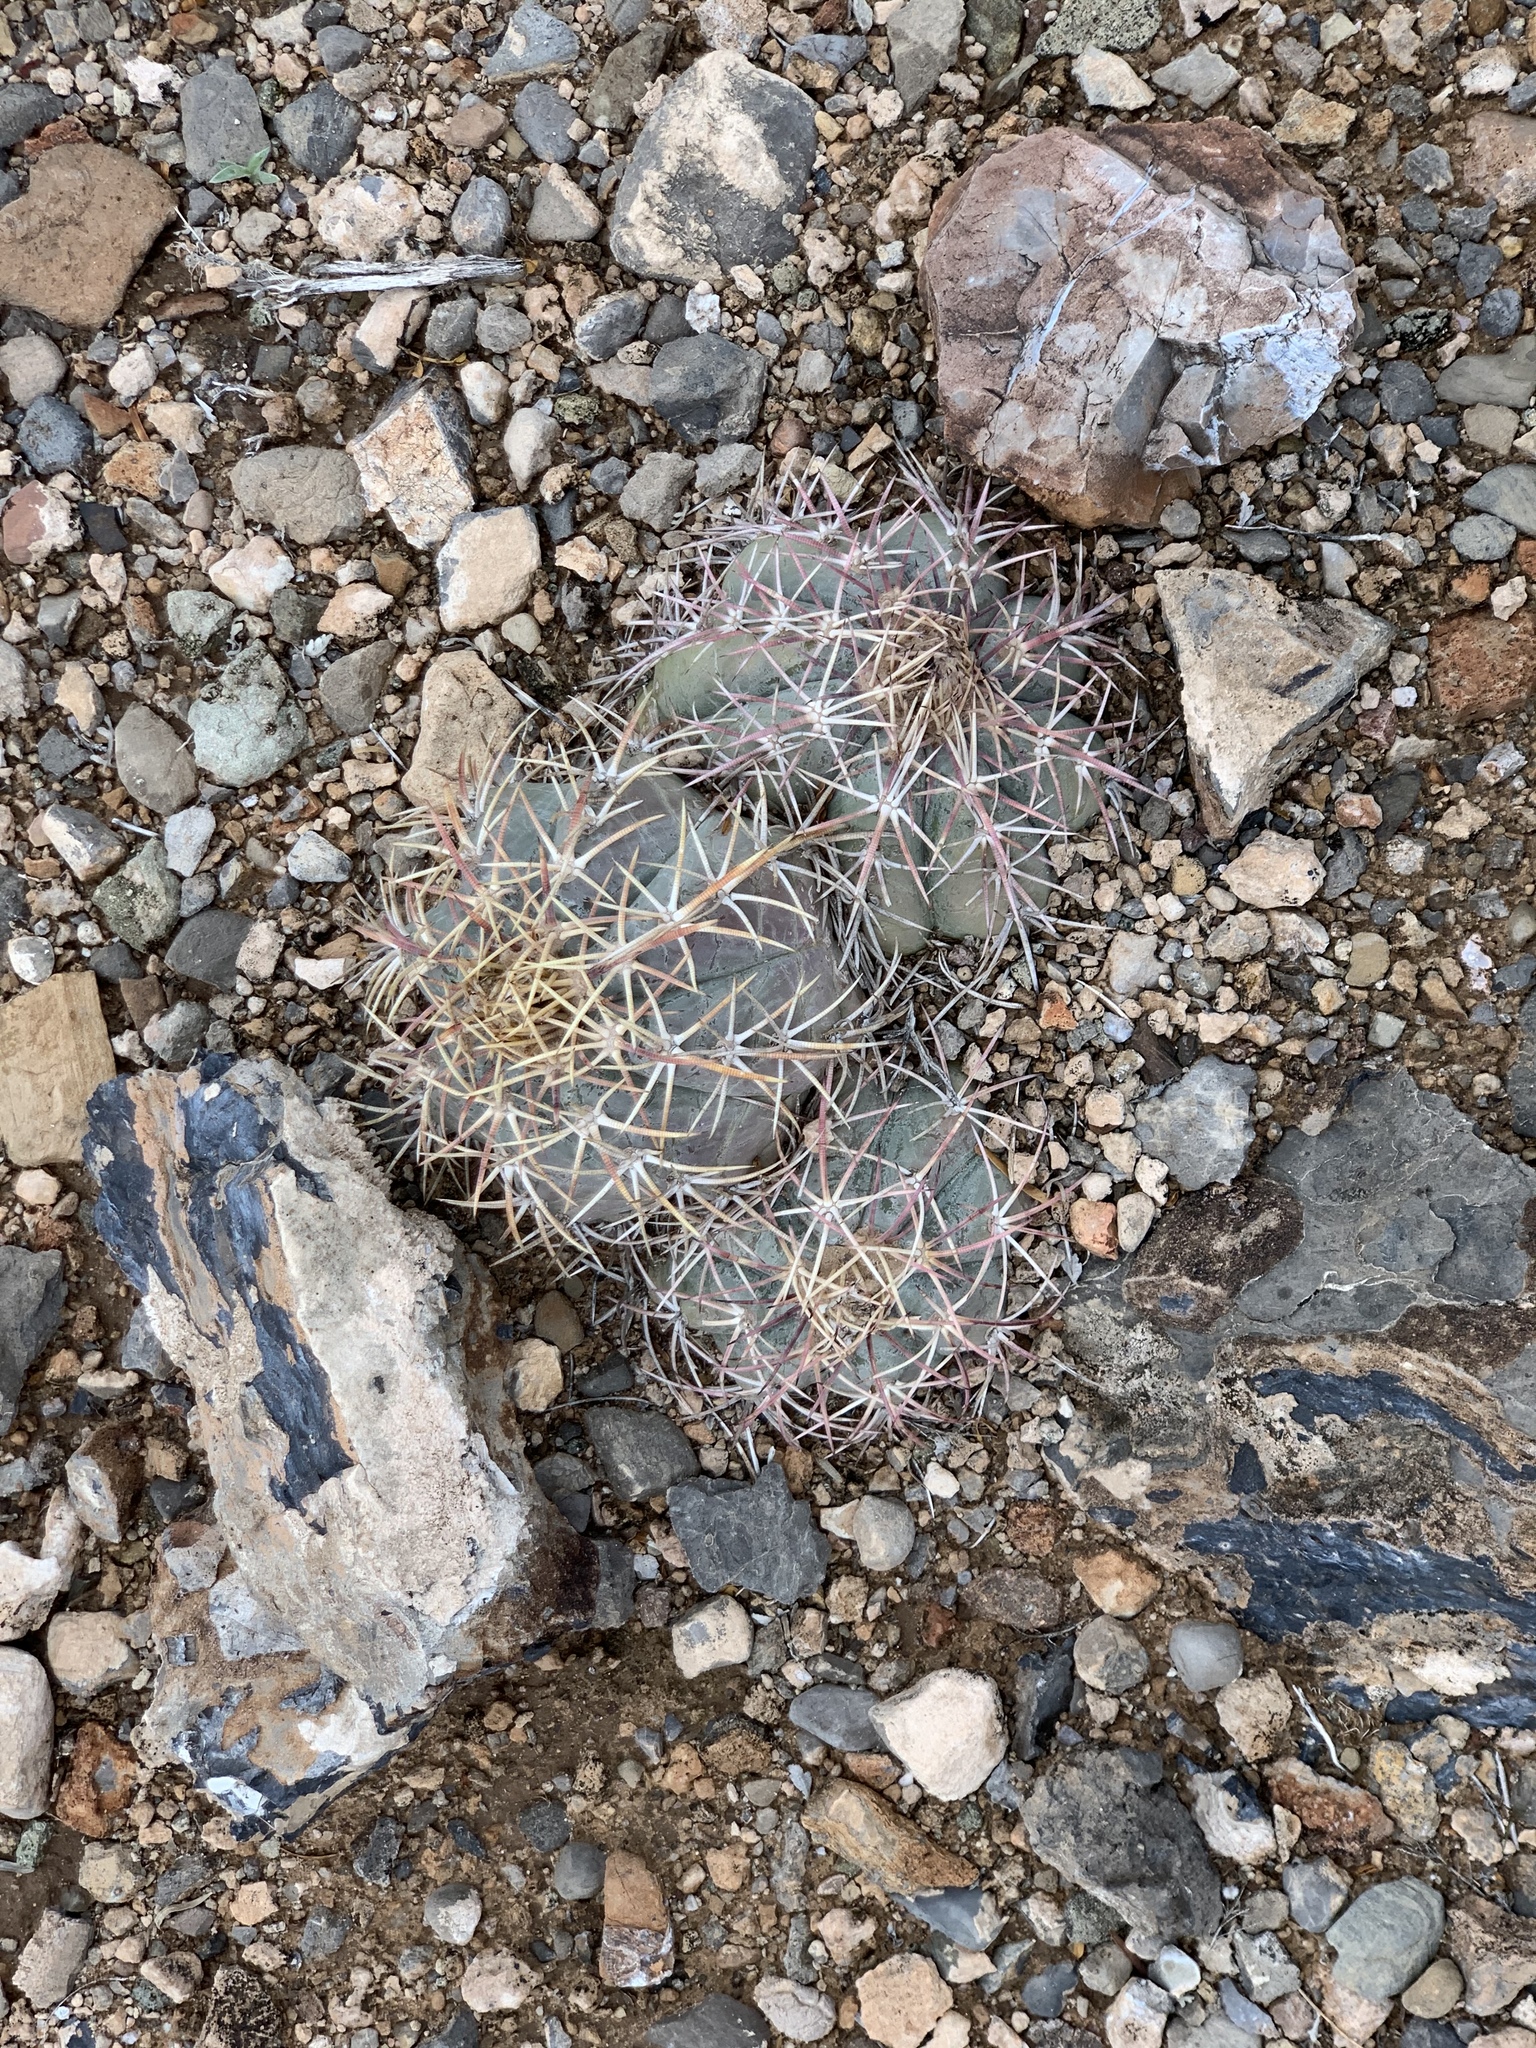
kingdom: Plantae
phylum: Tracheophyta
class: Magnoliopsida
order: Caryophyllales
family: Cactaceae
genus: Echinocactus
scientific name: Echinocactus horizonthalonius
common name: Devilshead
